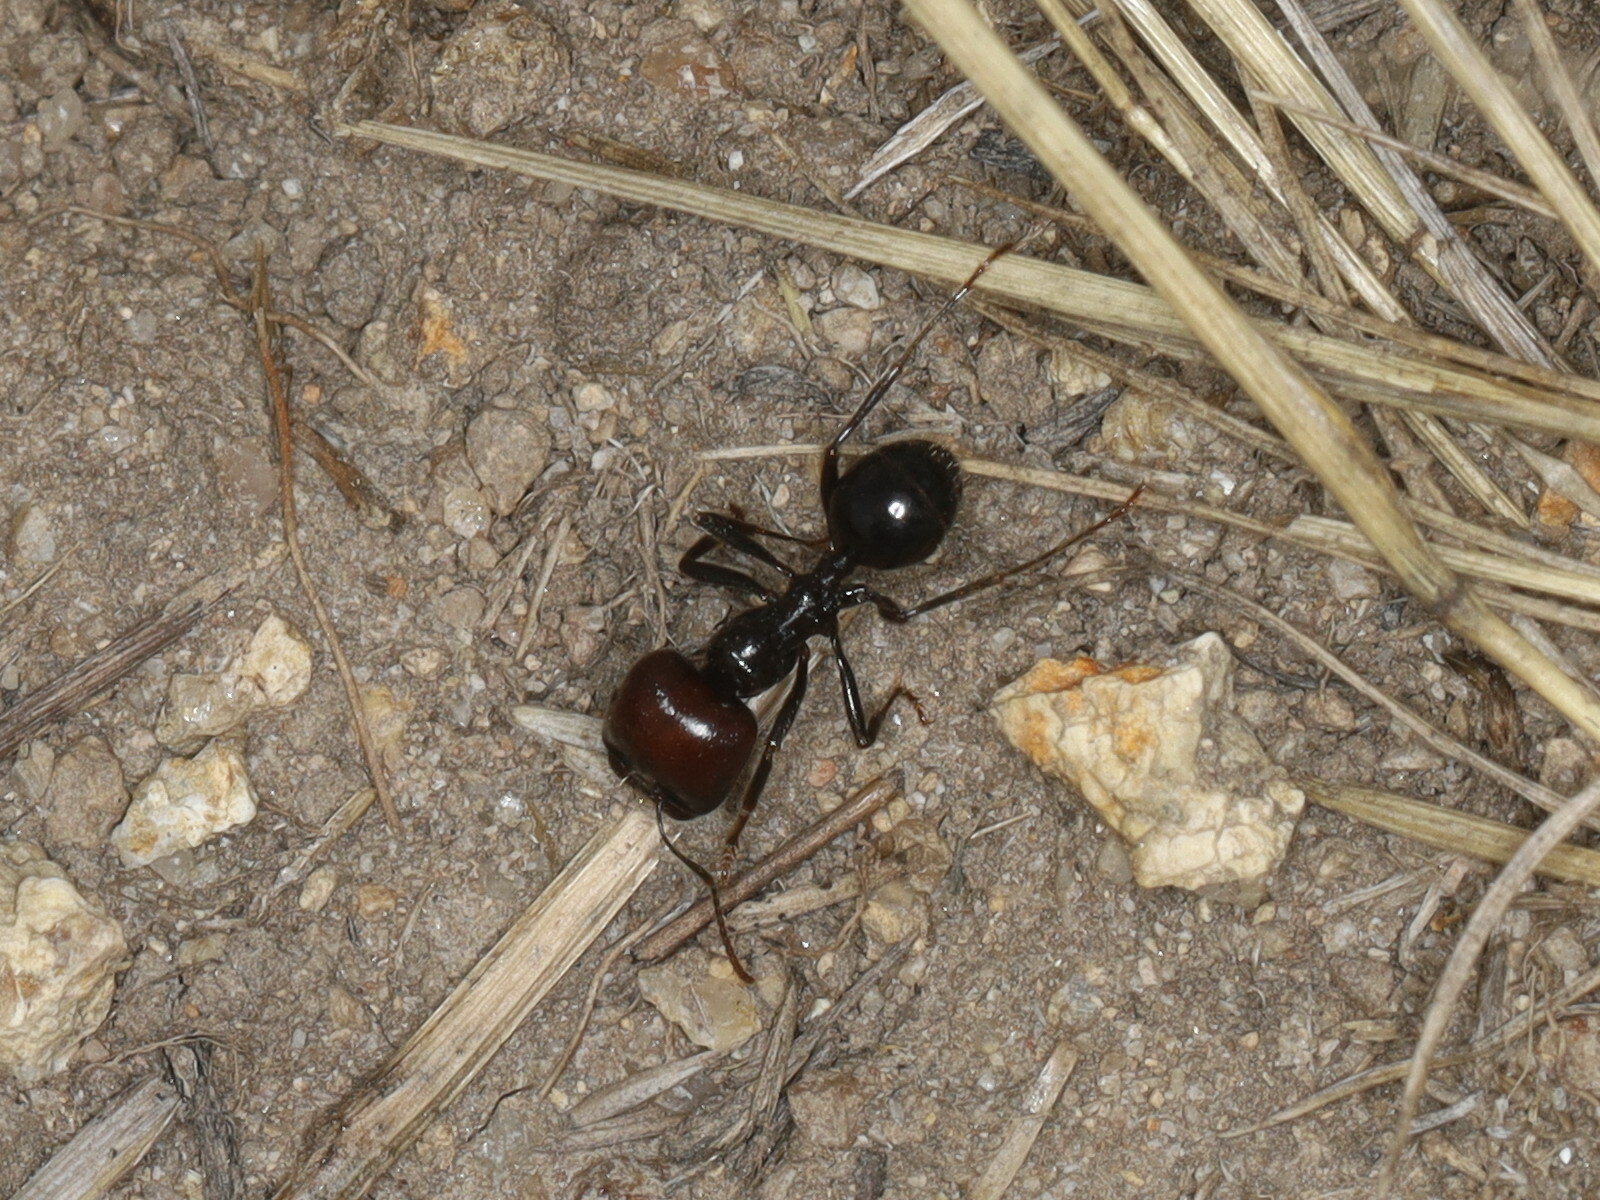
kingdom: Animalia
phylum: Arthropoda
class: Insecta
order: Hymenoptera
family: Formicidae
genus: Messor
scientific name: Messor barbarus
